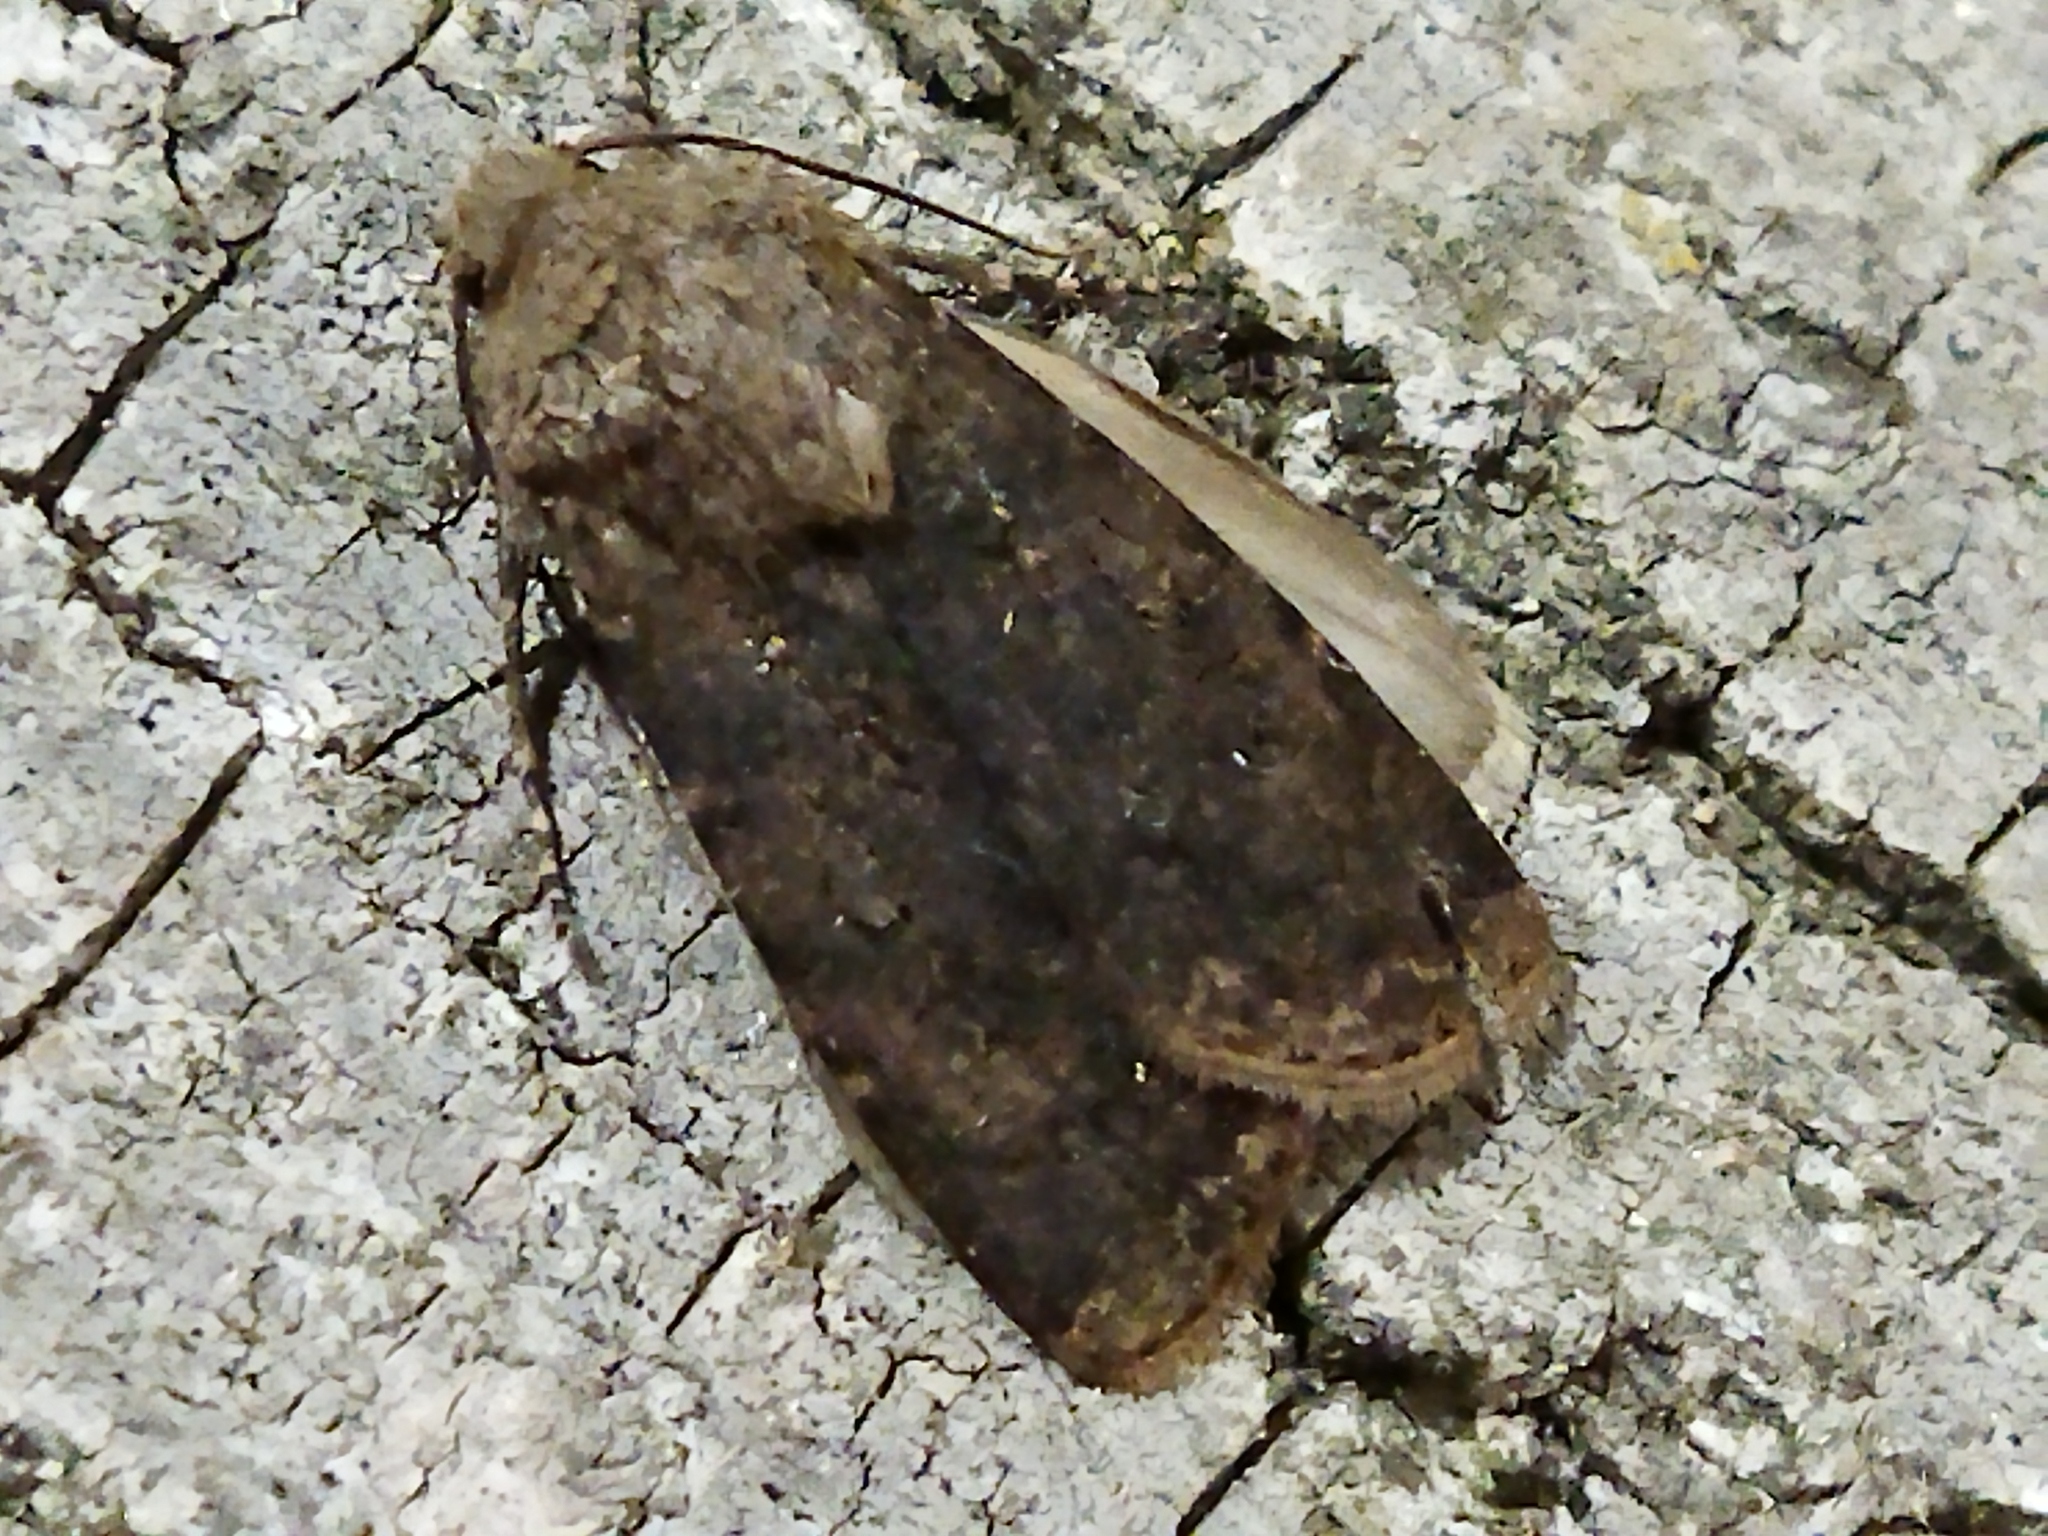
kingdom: Animalia
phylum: Arthropoda
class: Insecta
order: Lepidoptera
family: Noctuidae
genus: Agrotis
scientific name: Agrotis segetum
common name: Turnip moth
